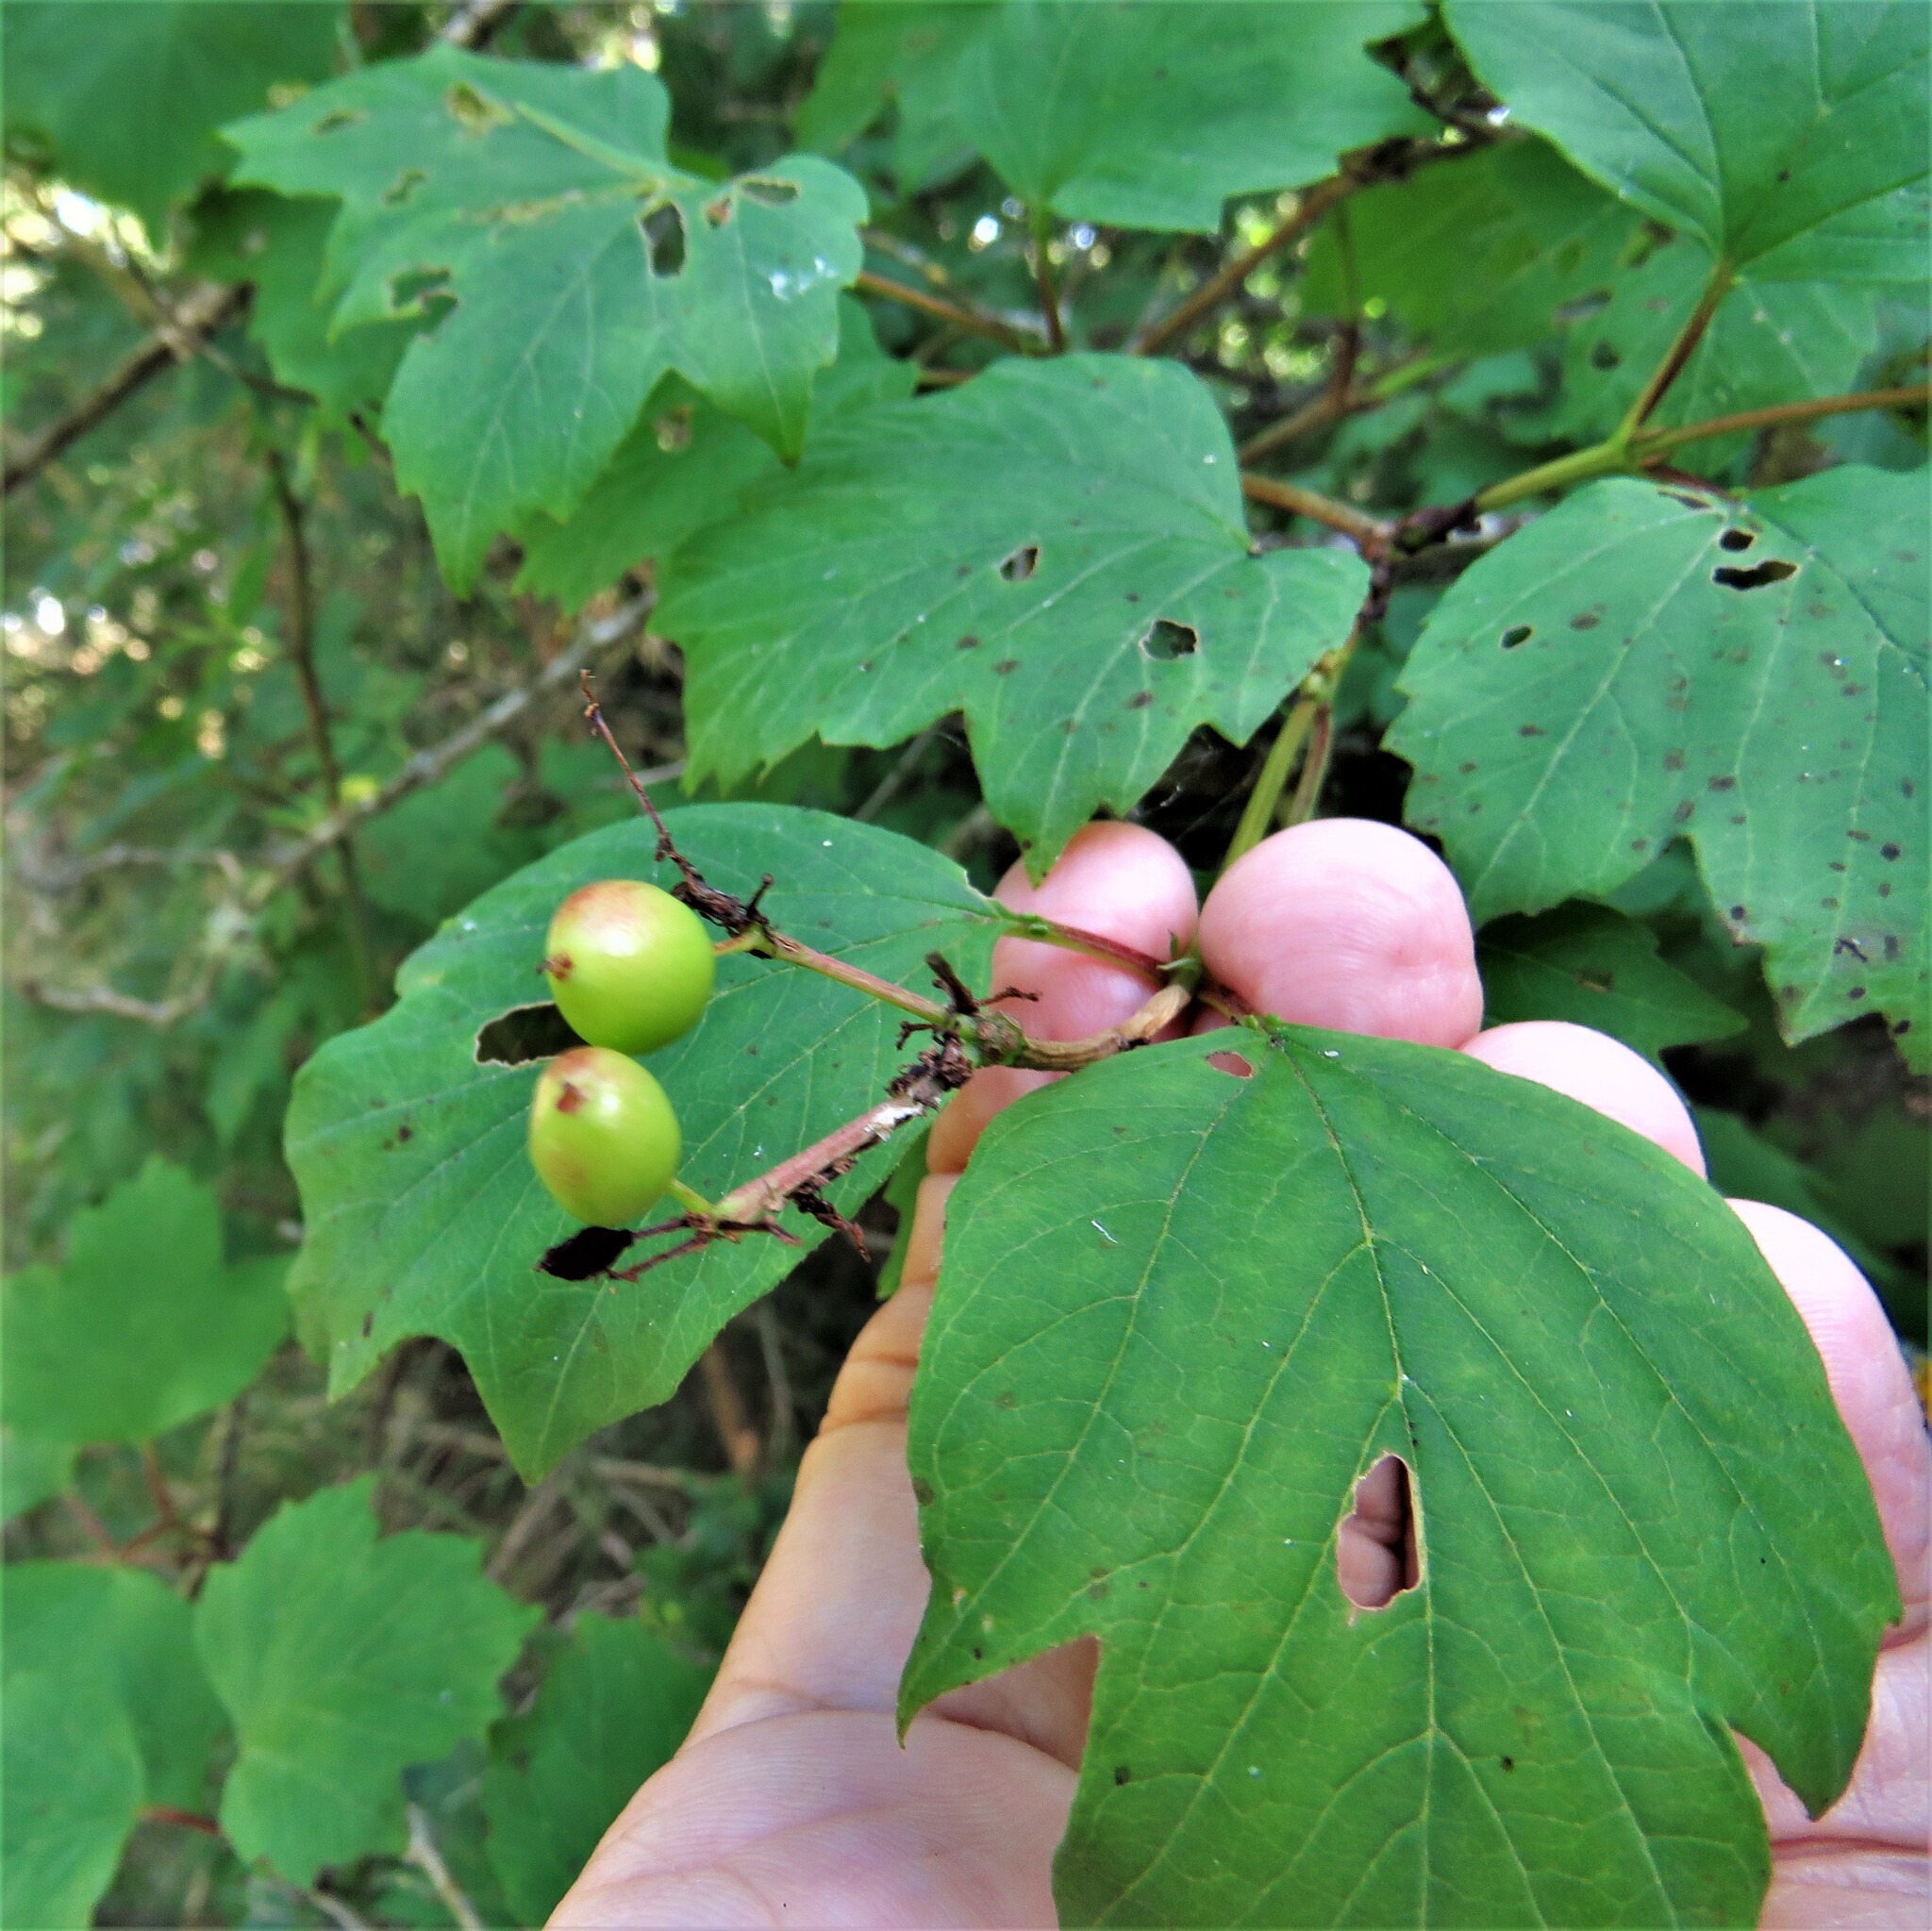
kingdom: Plantae
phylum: Tracheophyta
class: Magnoliopsida
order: Dipsacales
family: Viburnaceae
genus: Viburnum
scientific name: Viburnum opulus
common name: Guelder-rose
